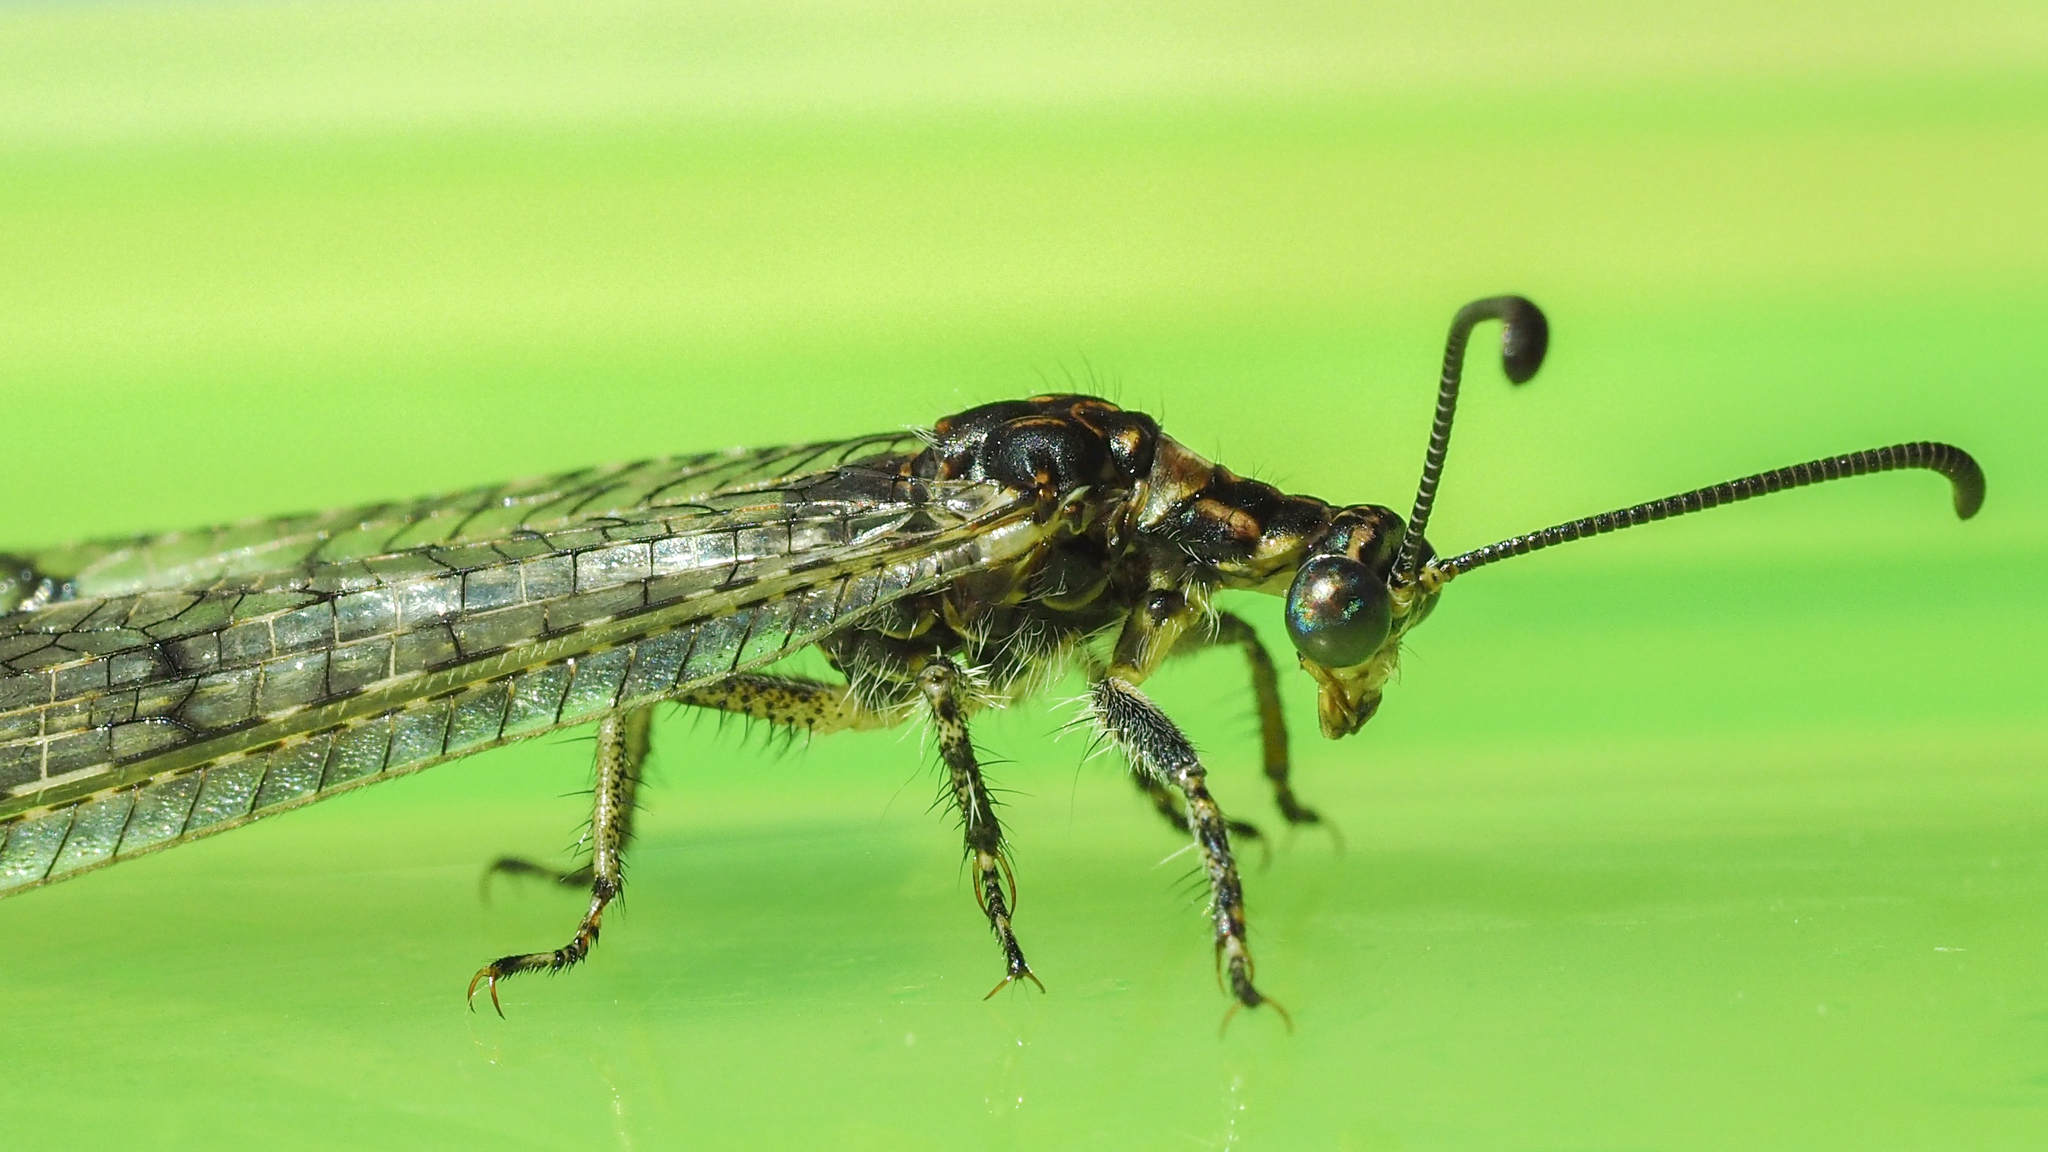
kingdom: Animalia
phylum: Arthropoda
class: Insecta
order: Neuroptera
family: Myrmeleontidae
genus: Distoleon
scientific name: Distoleon tetragrammicus
